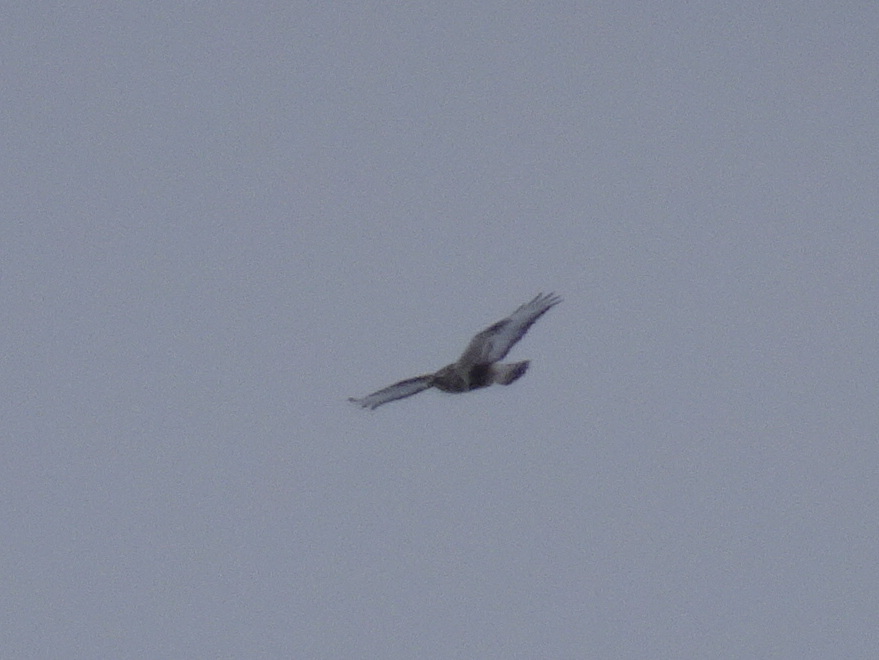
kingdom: Animalia
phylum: Chordata
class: Aves
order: Accipitriformes
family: Accipitridae
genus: Buteo
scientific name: Buteo lagopus
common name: Rough-legged buzzard
